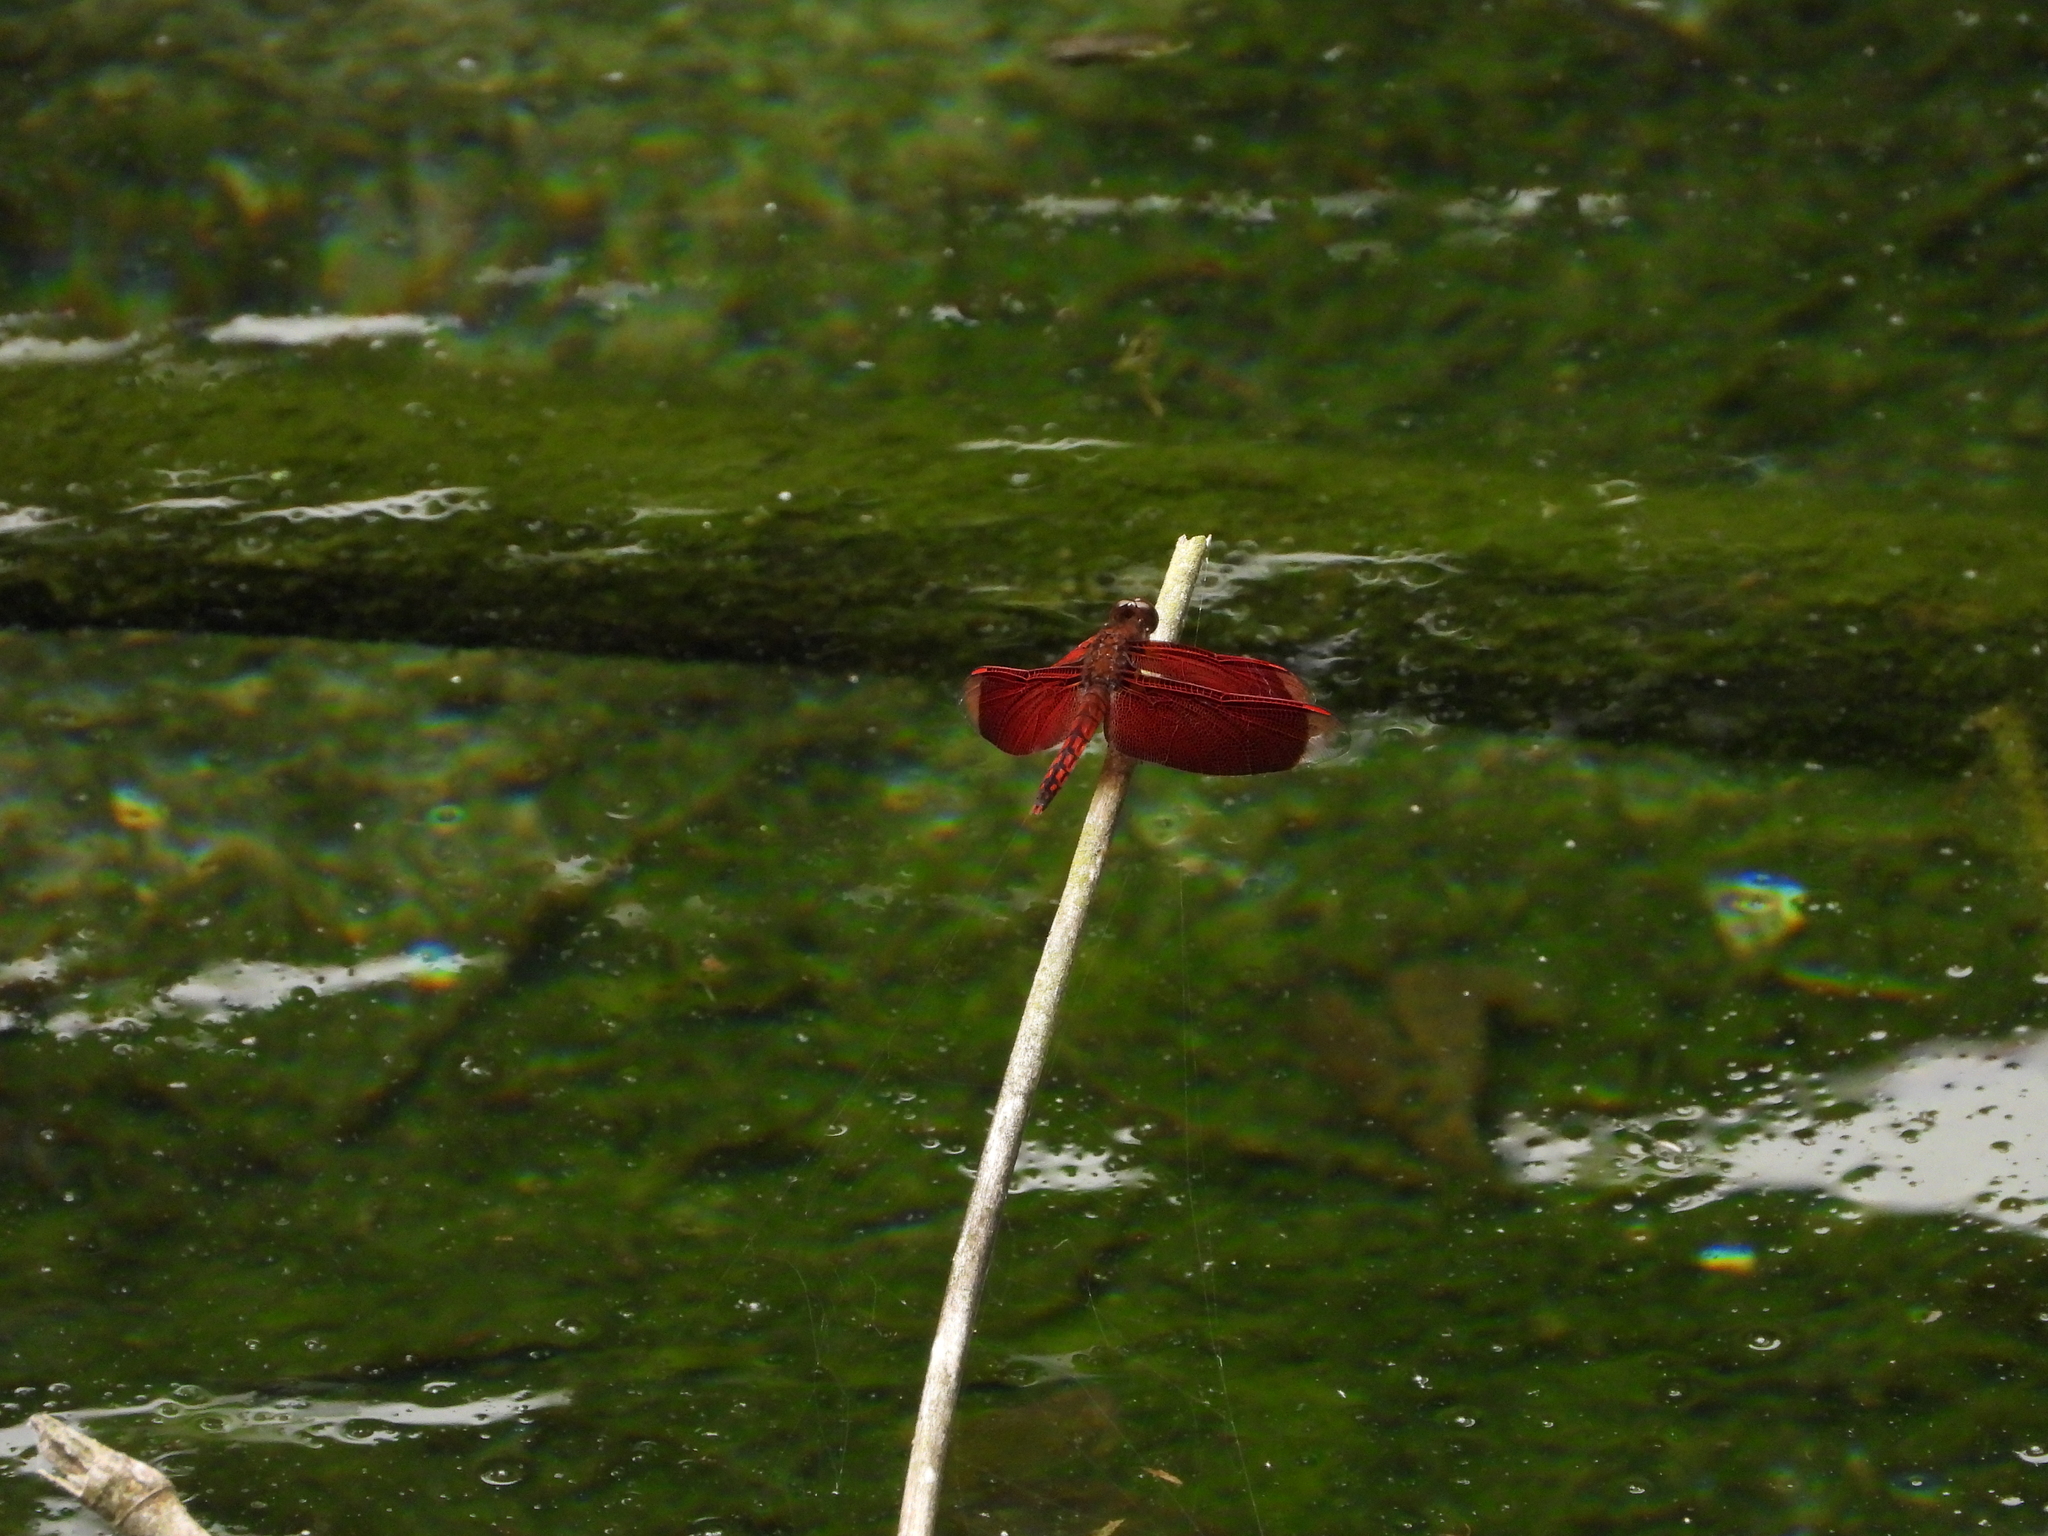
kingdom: Animalia
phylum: Arthropoda
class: Insecta
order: Odonata
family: Libellulidae
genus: Neurothemis
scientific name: Neurothemis taiwanensis
